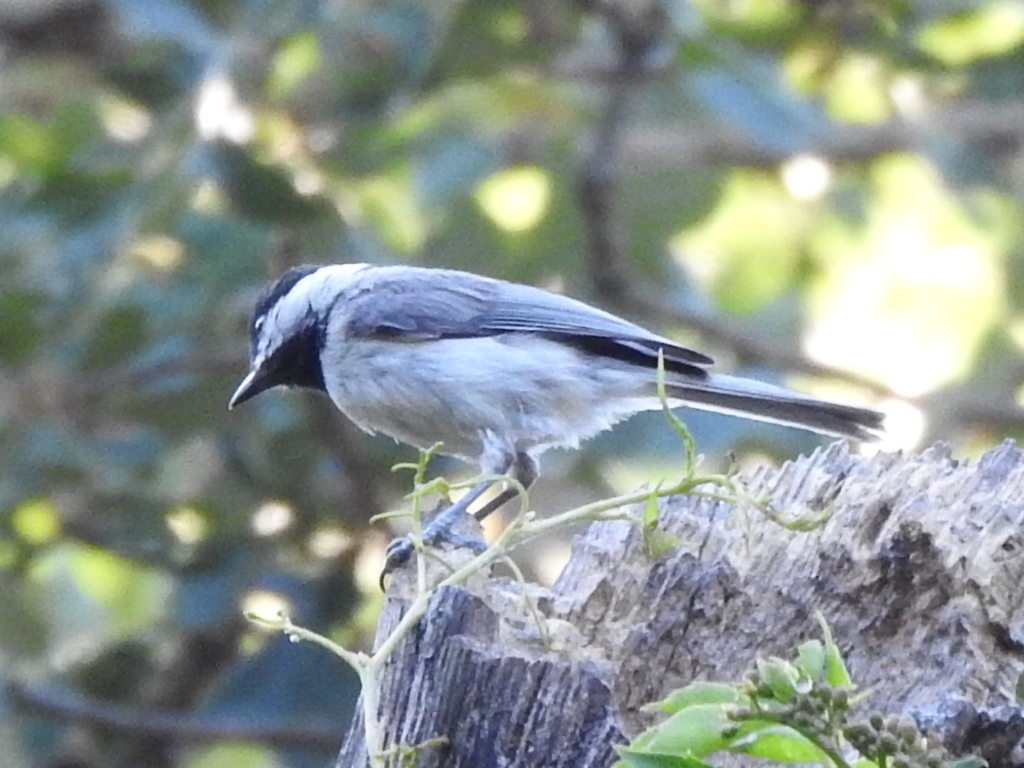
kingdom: Animalia
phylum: Chordata
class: Aves
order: Passeriformes
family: Paridae
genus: Poecile
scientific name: Poecile carolinensis
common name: Carolina chickadee
